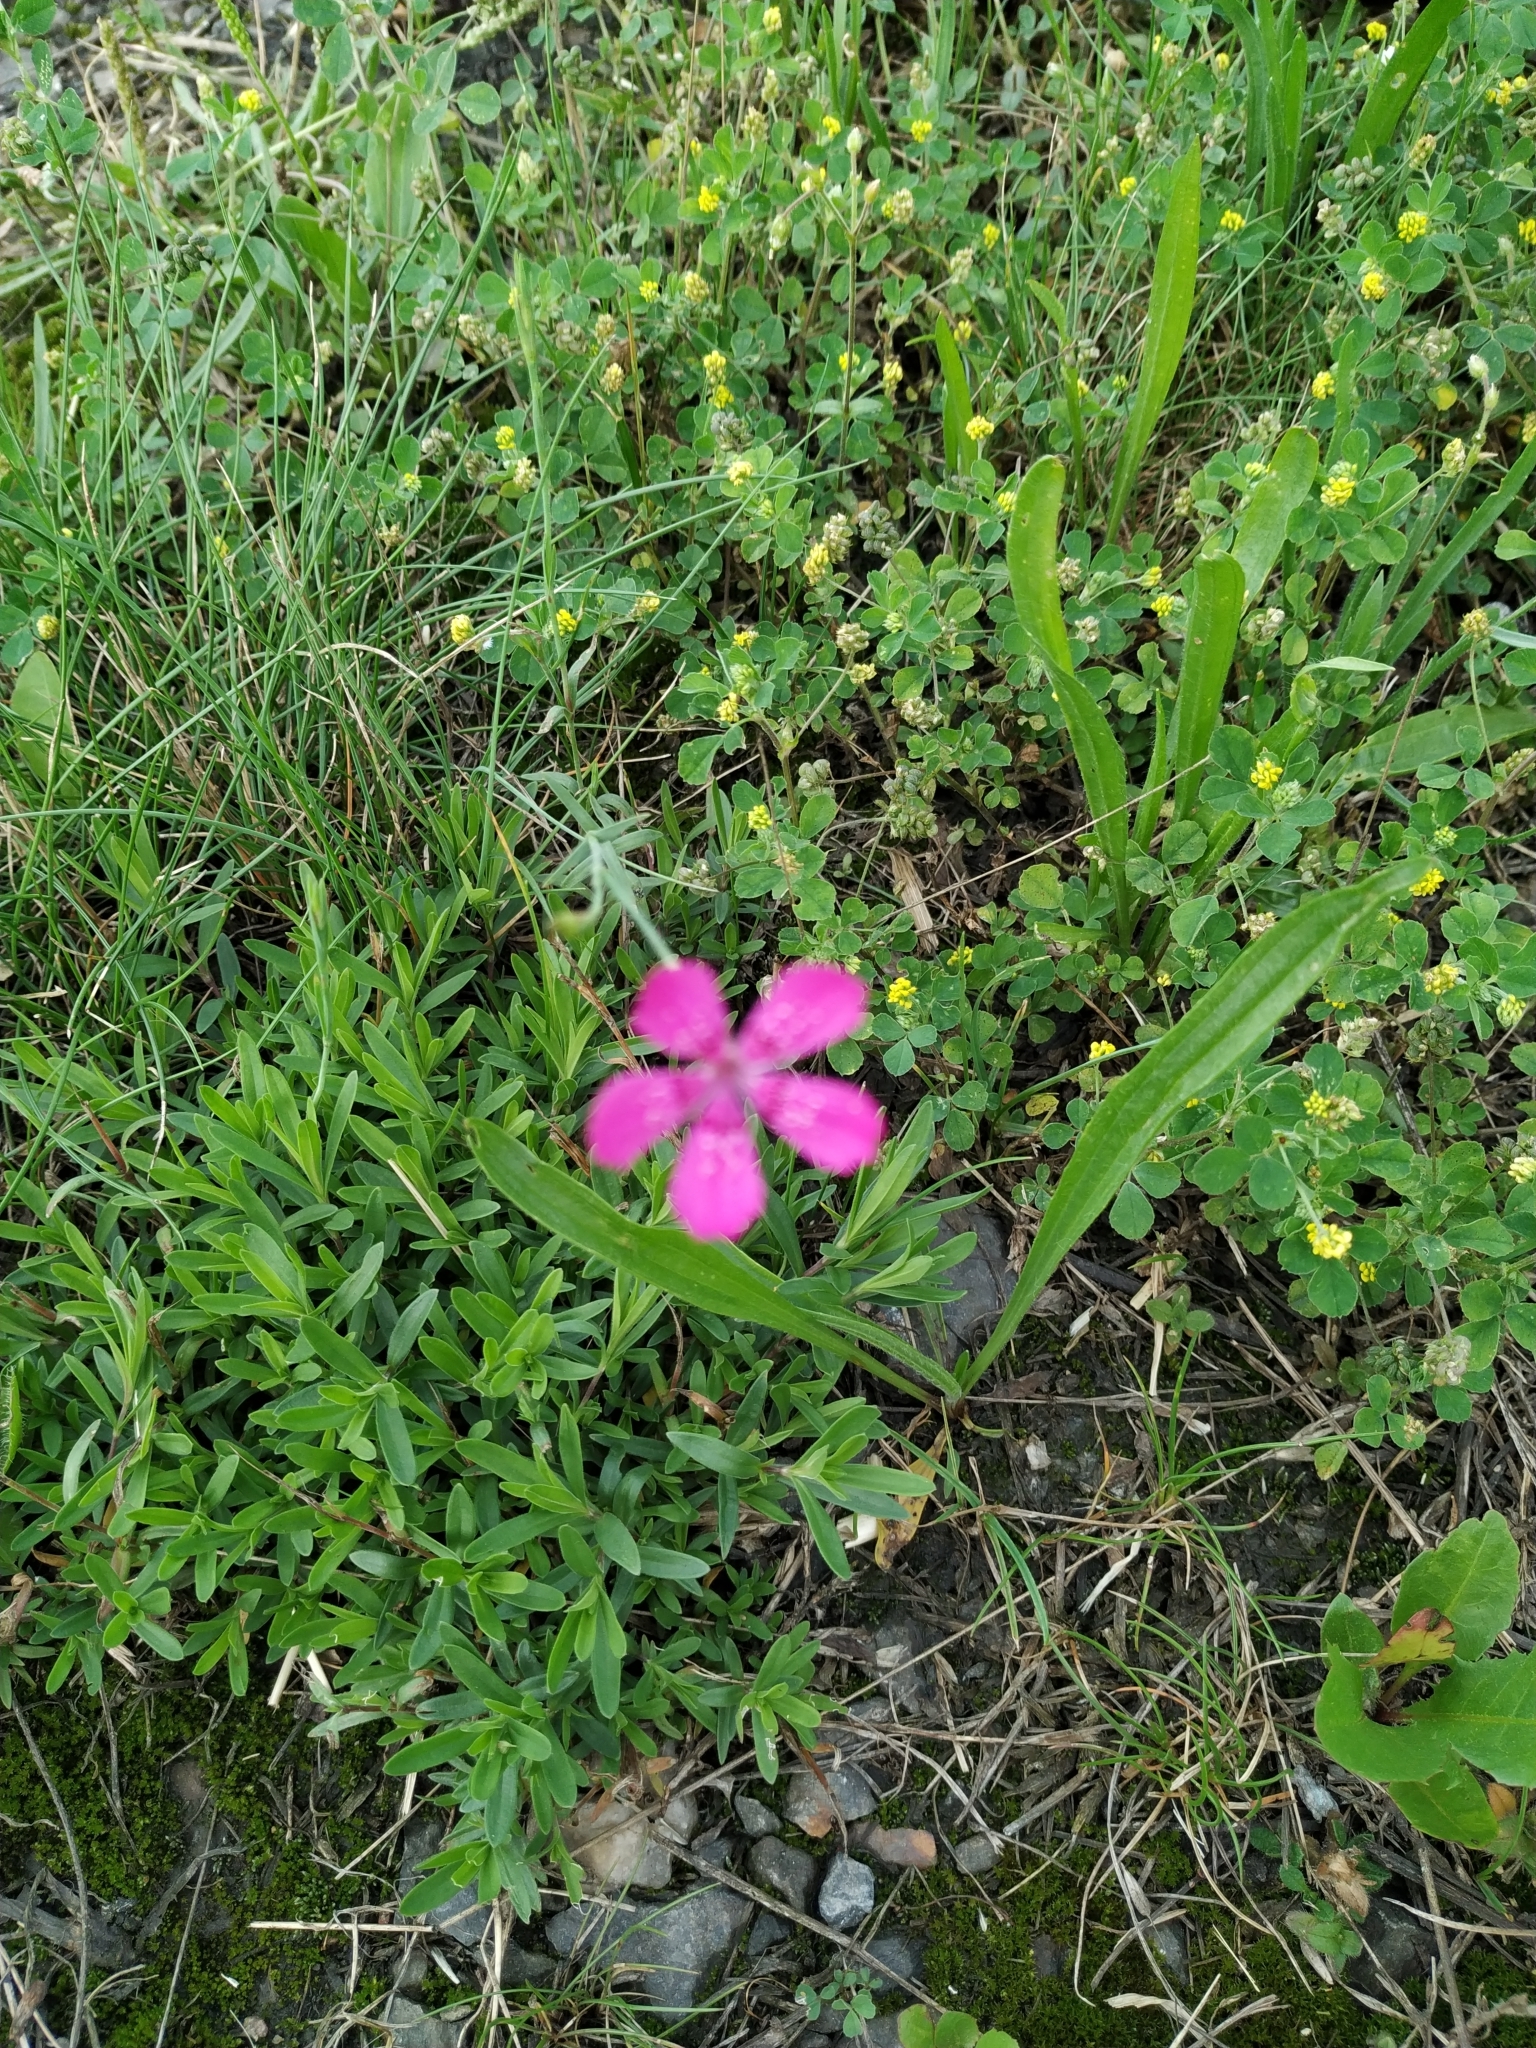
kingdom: Plantae
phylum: Tracheophyta
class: Magnoliopsida
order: Caryophyllales
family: Caryophyllaceae
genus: Dianthus
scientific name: Dianthus deltoides
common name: Maiden pink
